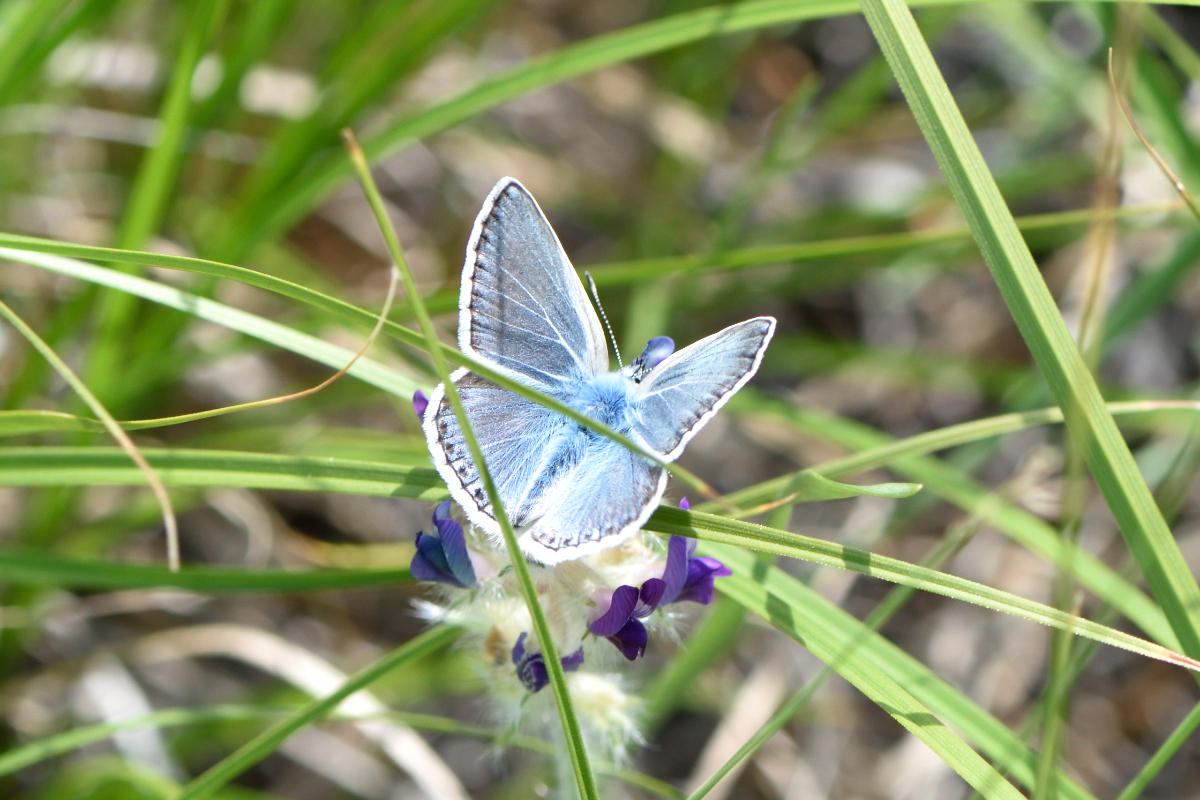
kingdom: Animalia
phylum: Arthropoda
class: Insecta
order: Lepidoptera
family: Lycaenidae
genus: Polyommatus
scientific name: Polyommatus erotides
